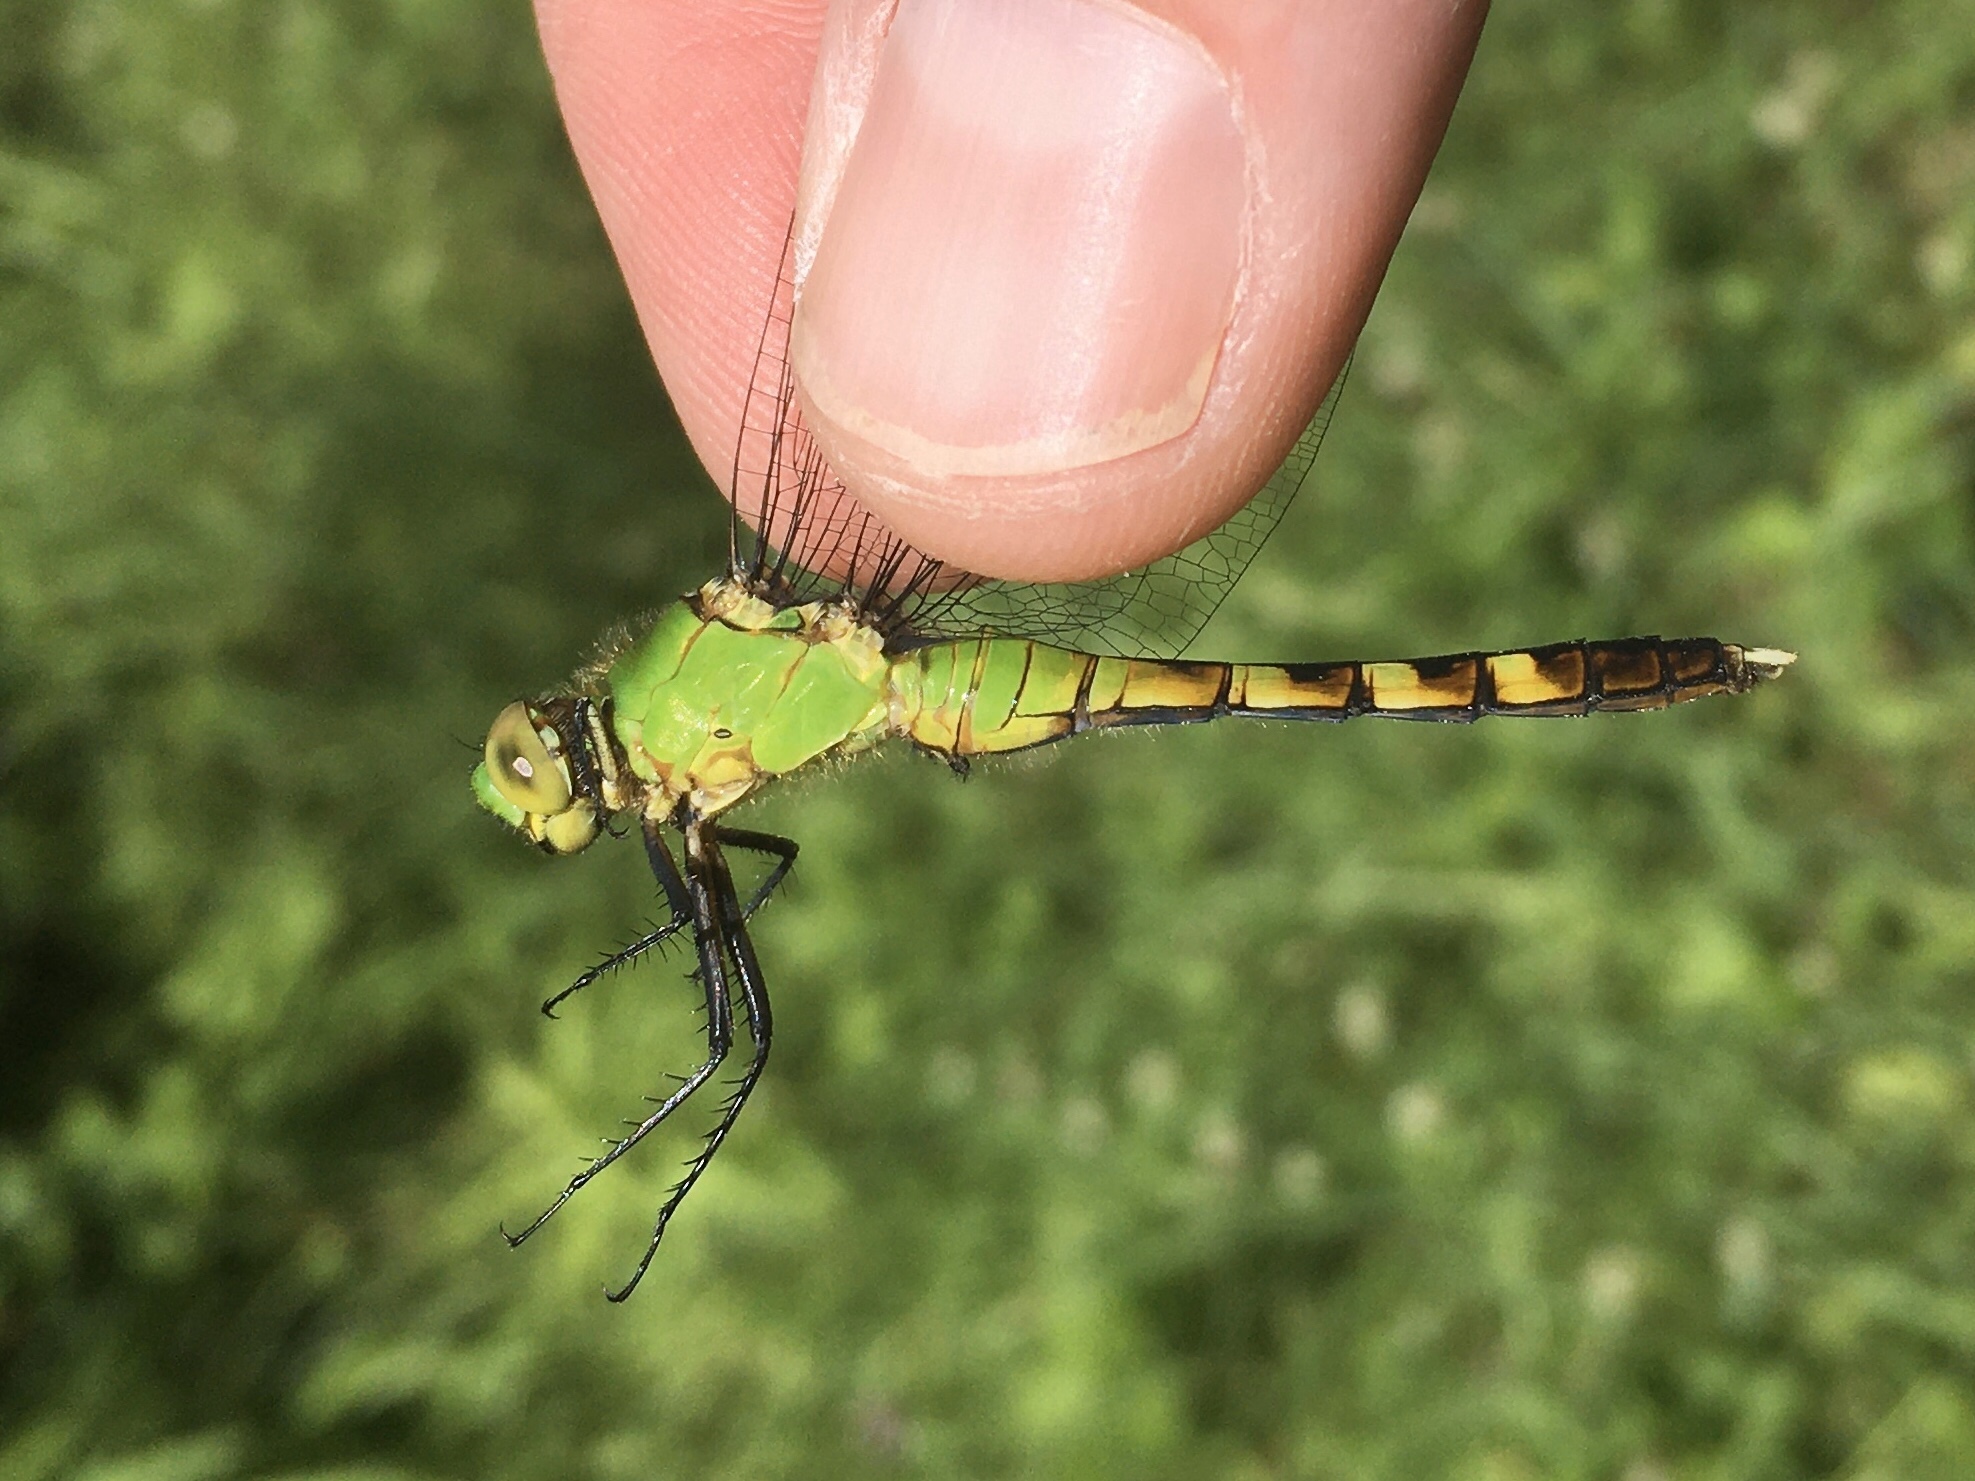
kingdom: Animalia
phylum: Arthropoda
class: Insecta
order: Odonata
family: Libellulidae
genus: Erythemis
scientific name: Erythemis simplicicollis
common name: Eastern pondhawk
